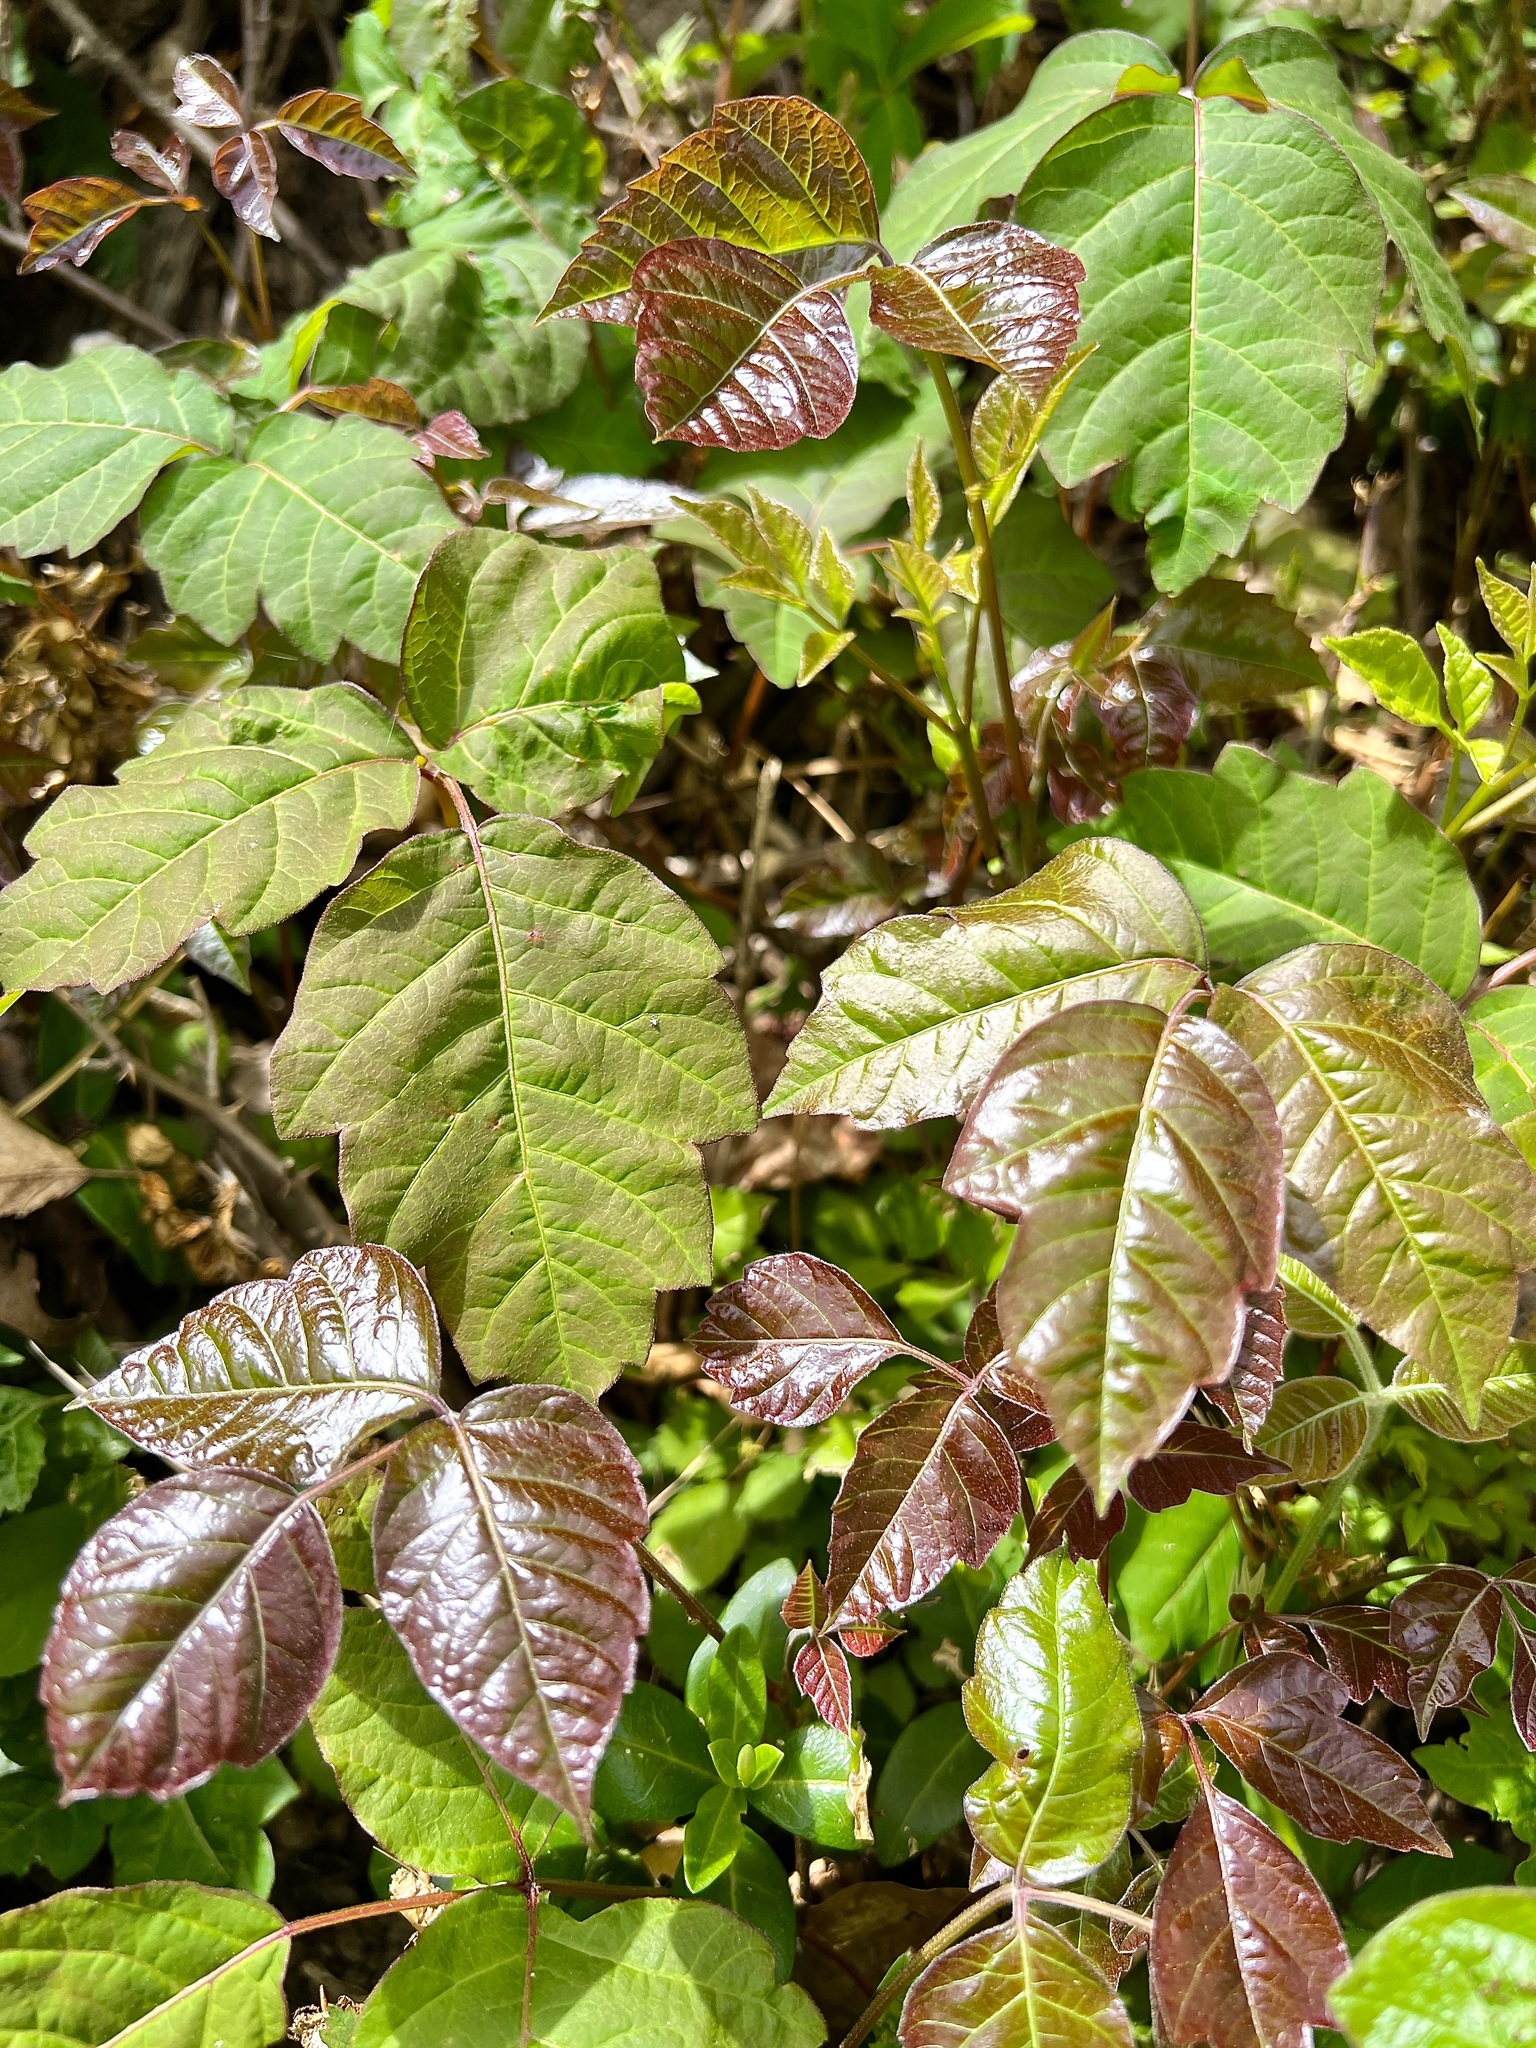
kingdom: Plantae
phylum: Tracheophyta
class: Magnoliopsida
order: Sapindales
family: Anacardiaceae
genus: Toxicodendron
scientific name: Toxicodendron radicans
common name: Poison ivy
